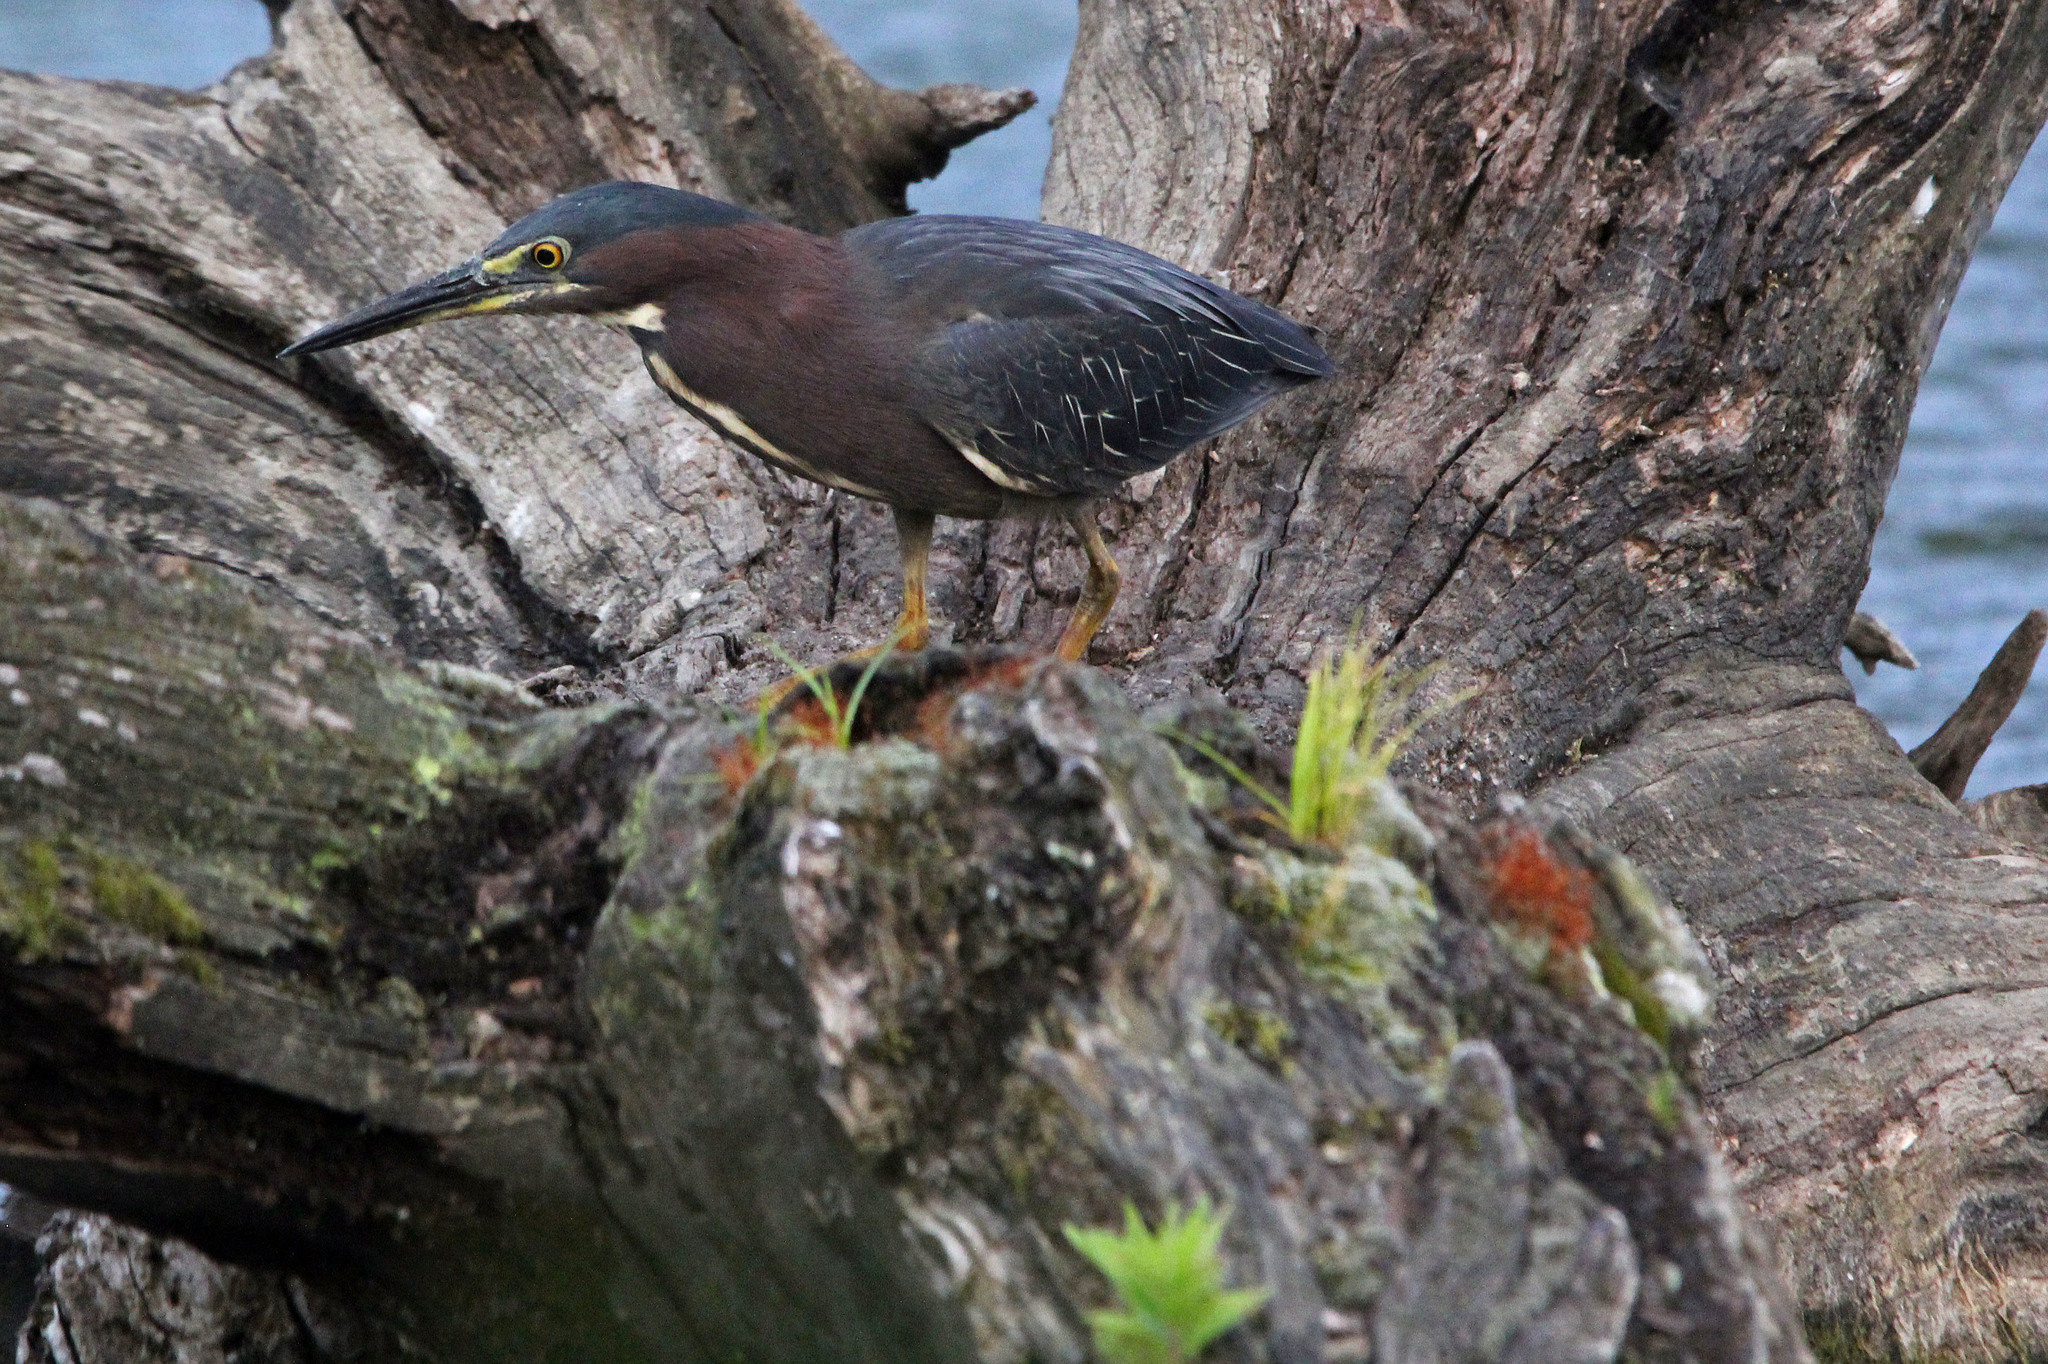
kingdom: Animalia
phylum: Chordata
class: Aves
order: Pelecaniformes
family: Ardeidae
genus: Butorides
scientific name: Butorides virescens
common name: Green heron
